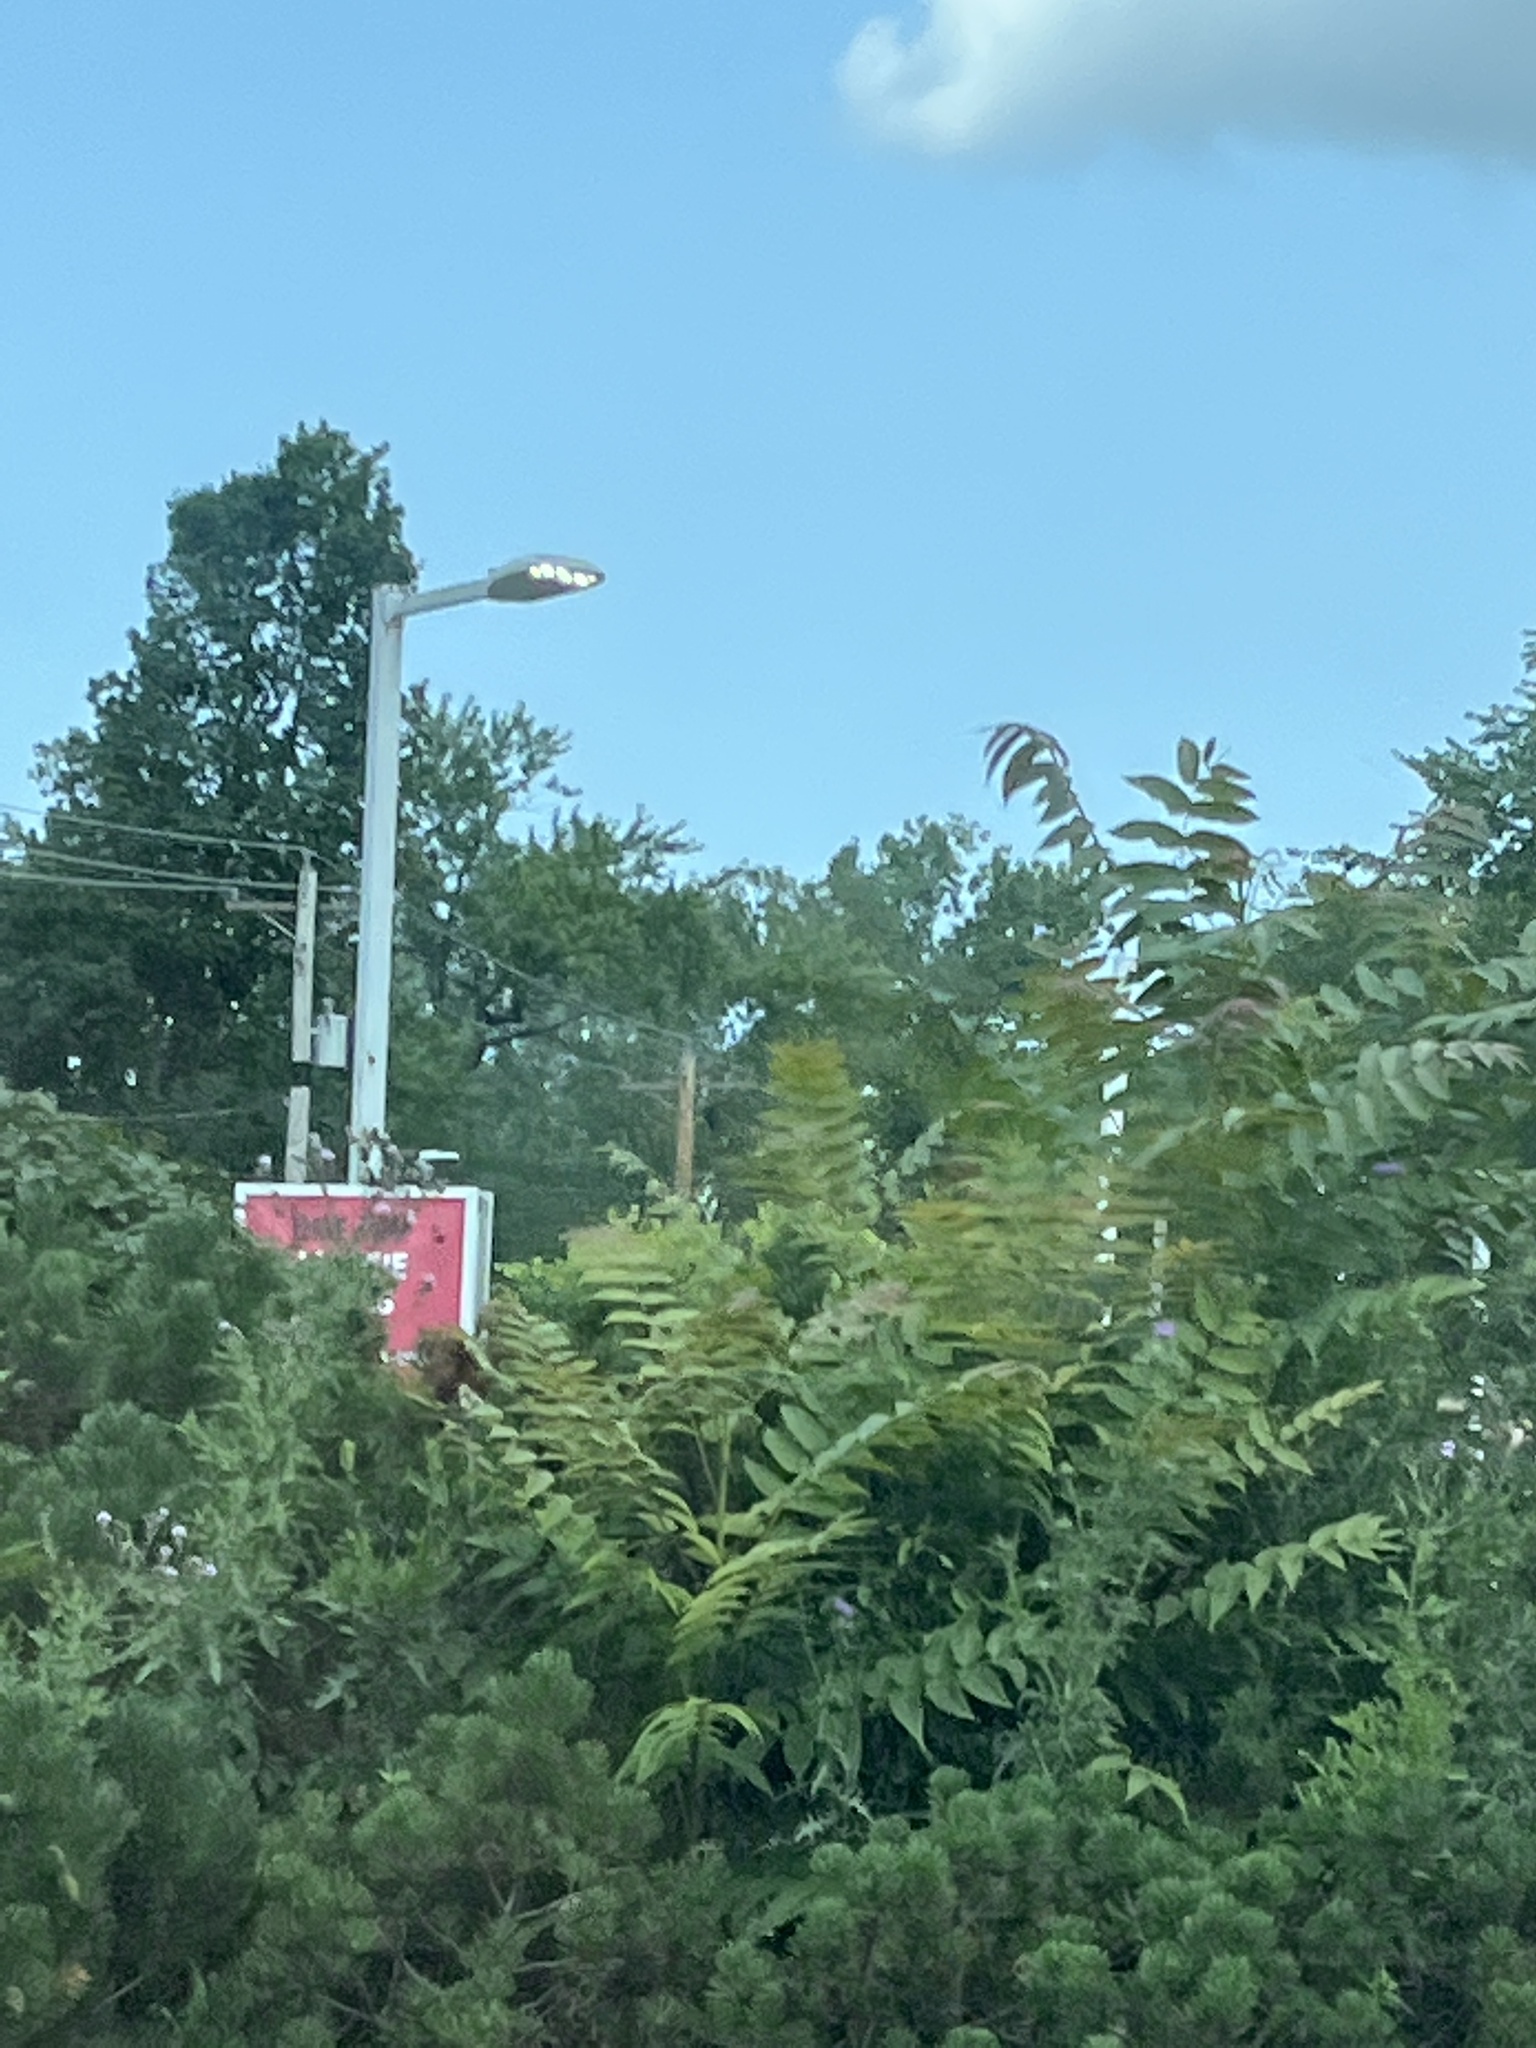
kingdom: Plantae
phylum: Tracheophyta
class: Magnoliopsida
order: Sapindales
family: Simaroubaceae
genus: Ailanthus
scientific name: Ailanthus altissima
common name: Tree-of-heaven
